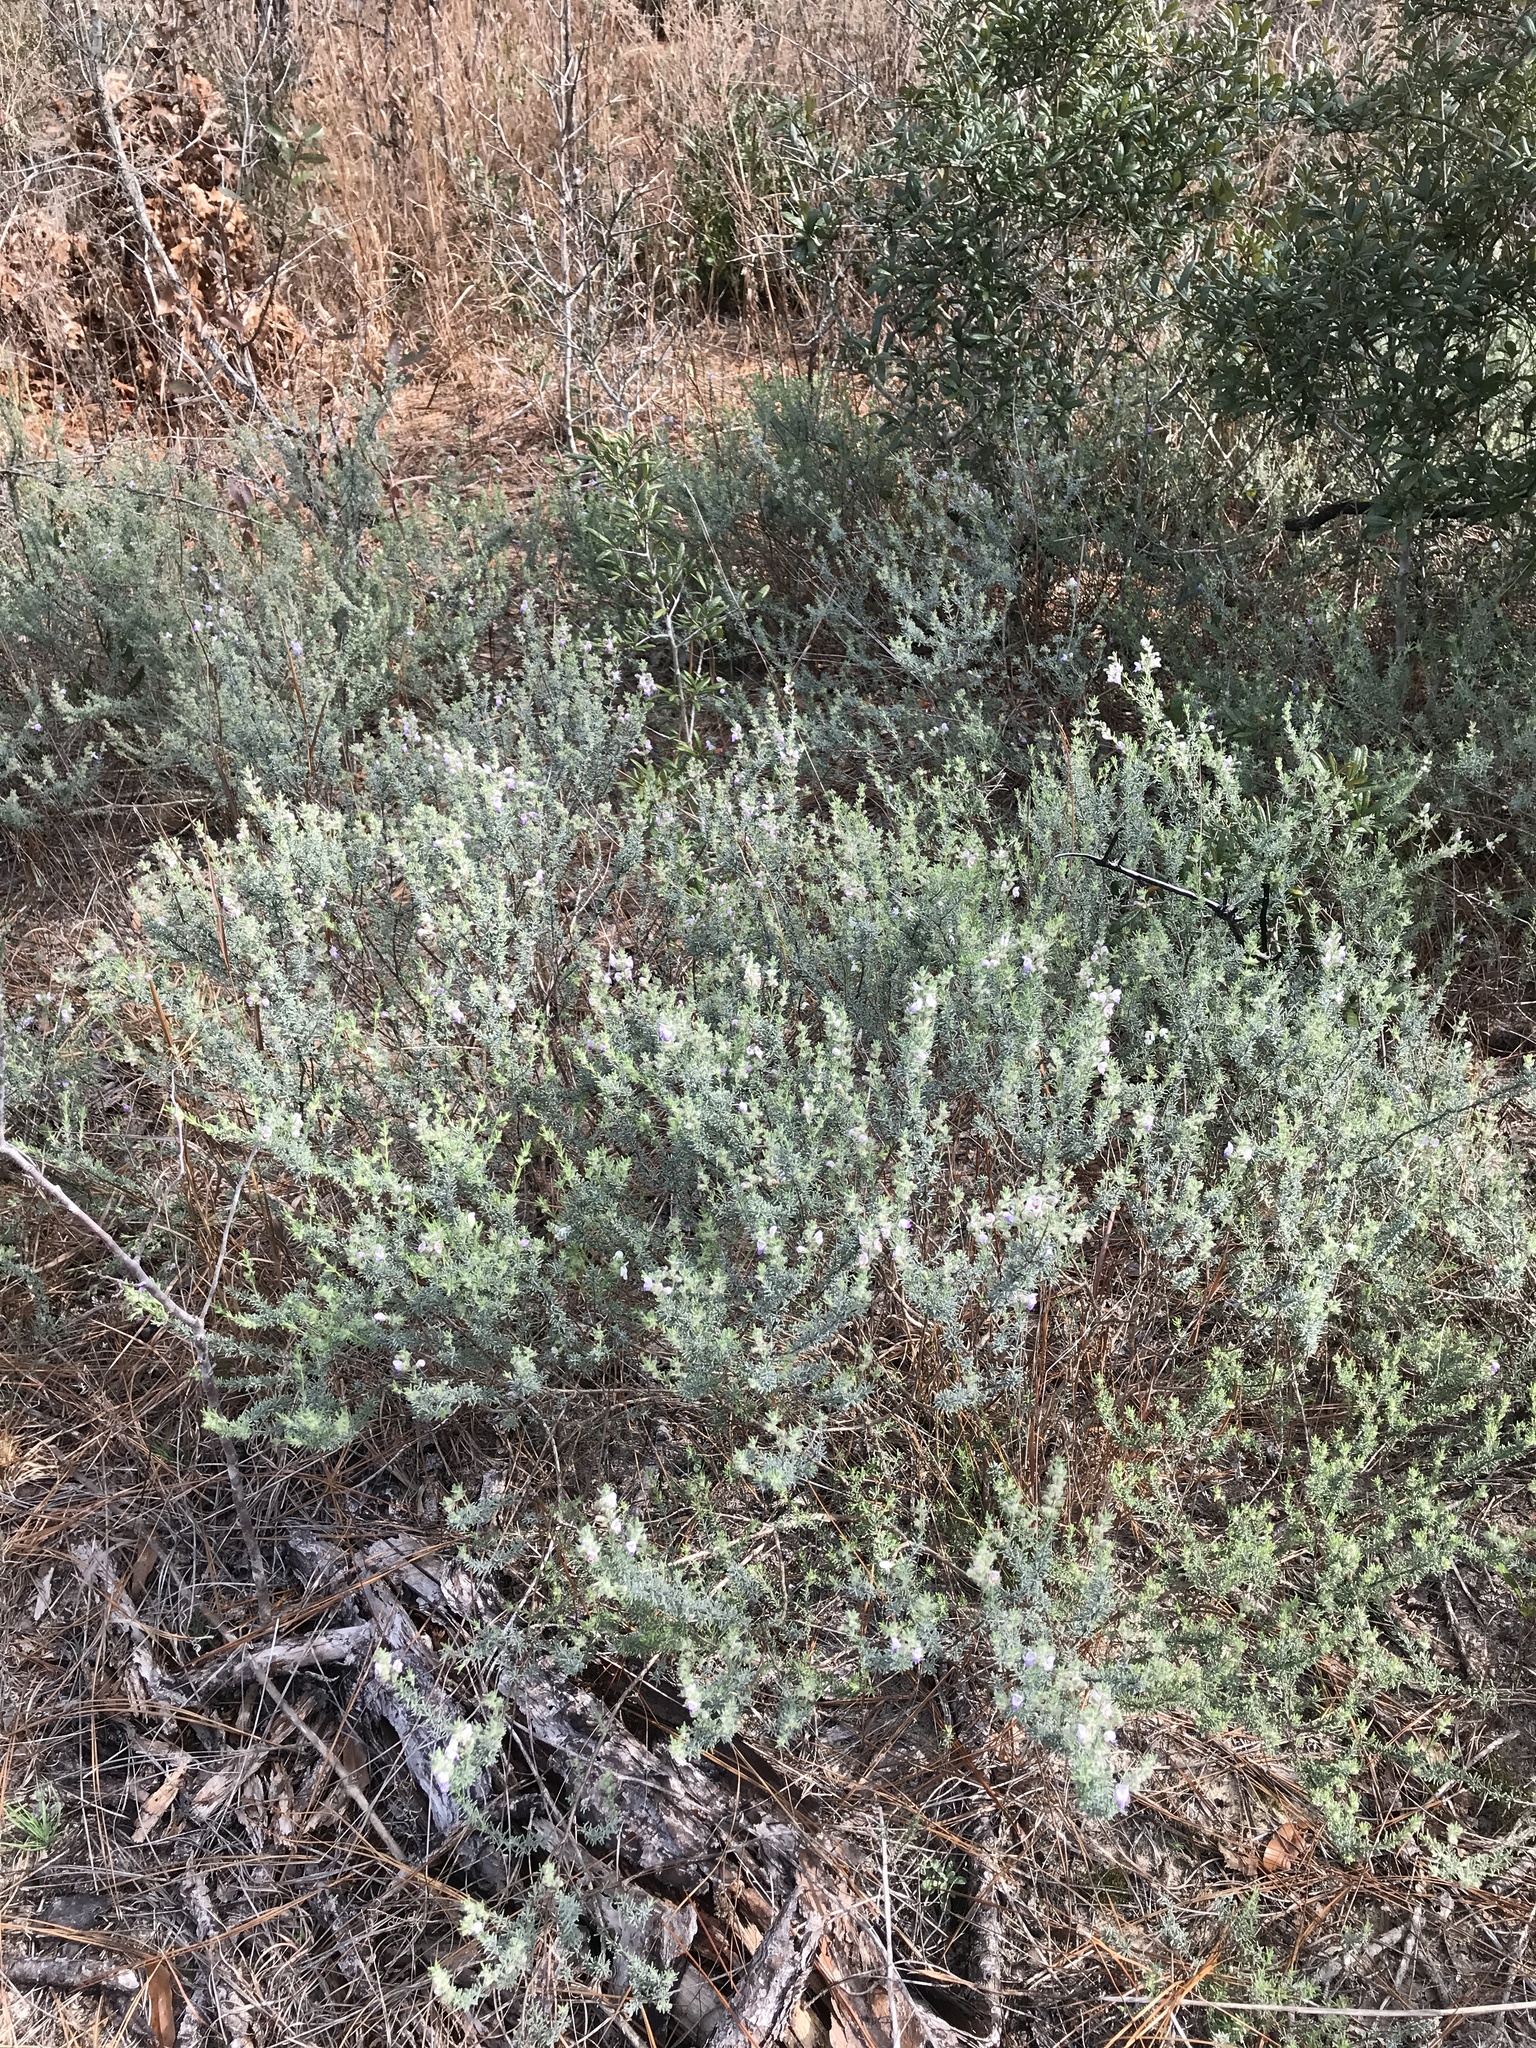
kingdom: Plantae
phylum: Tracheophyta
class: Magnoliopsida
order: Lamiales
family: Lamiaceae
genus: Conradina
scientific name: Conradina canescens
